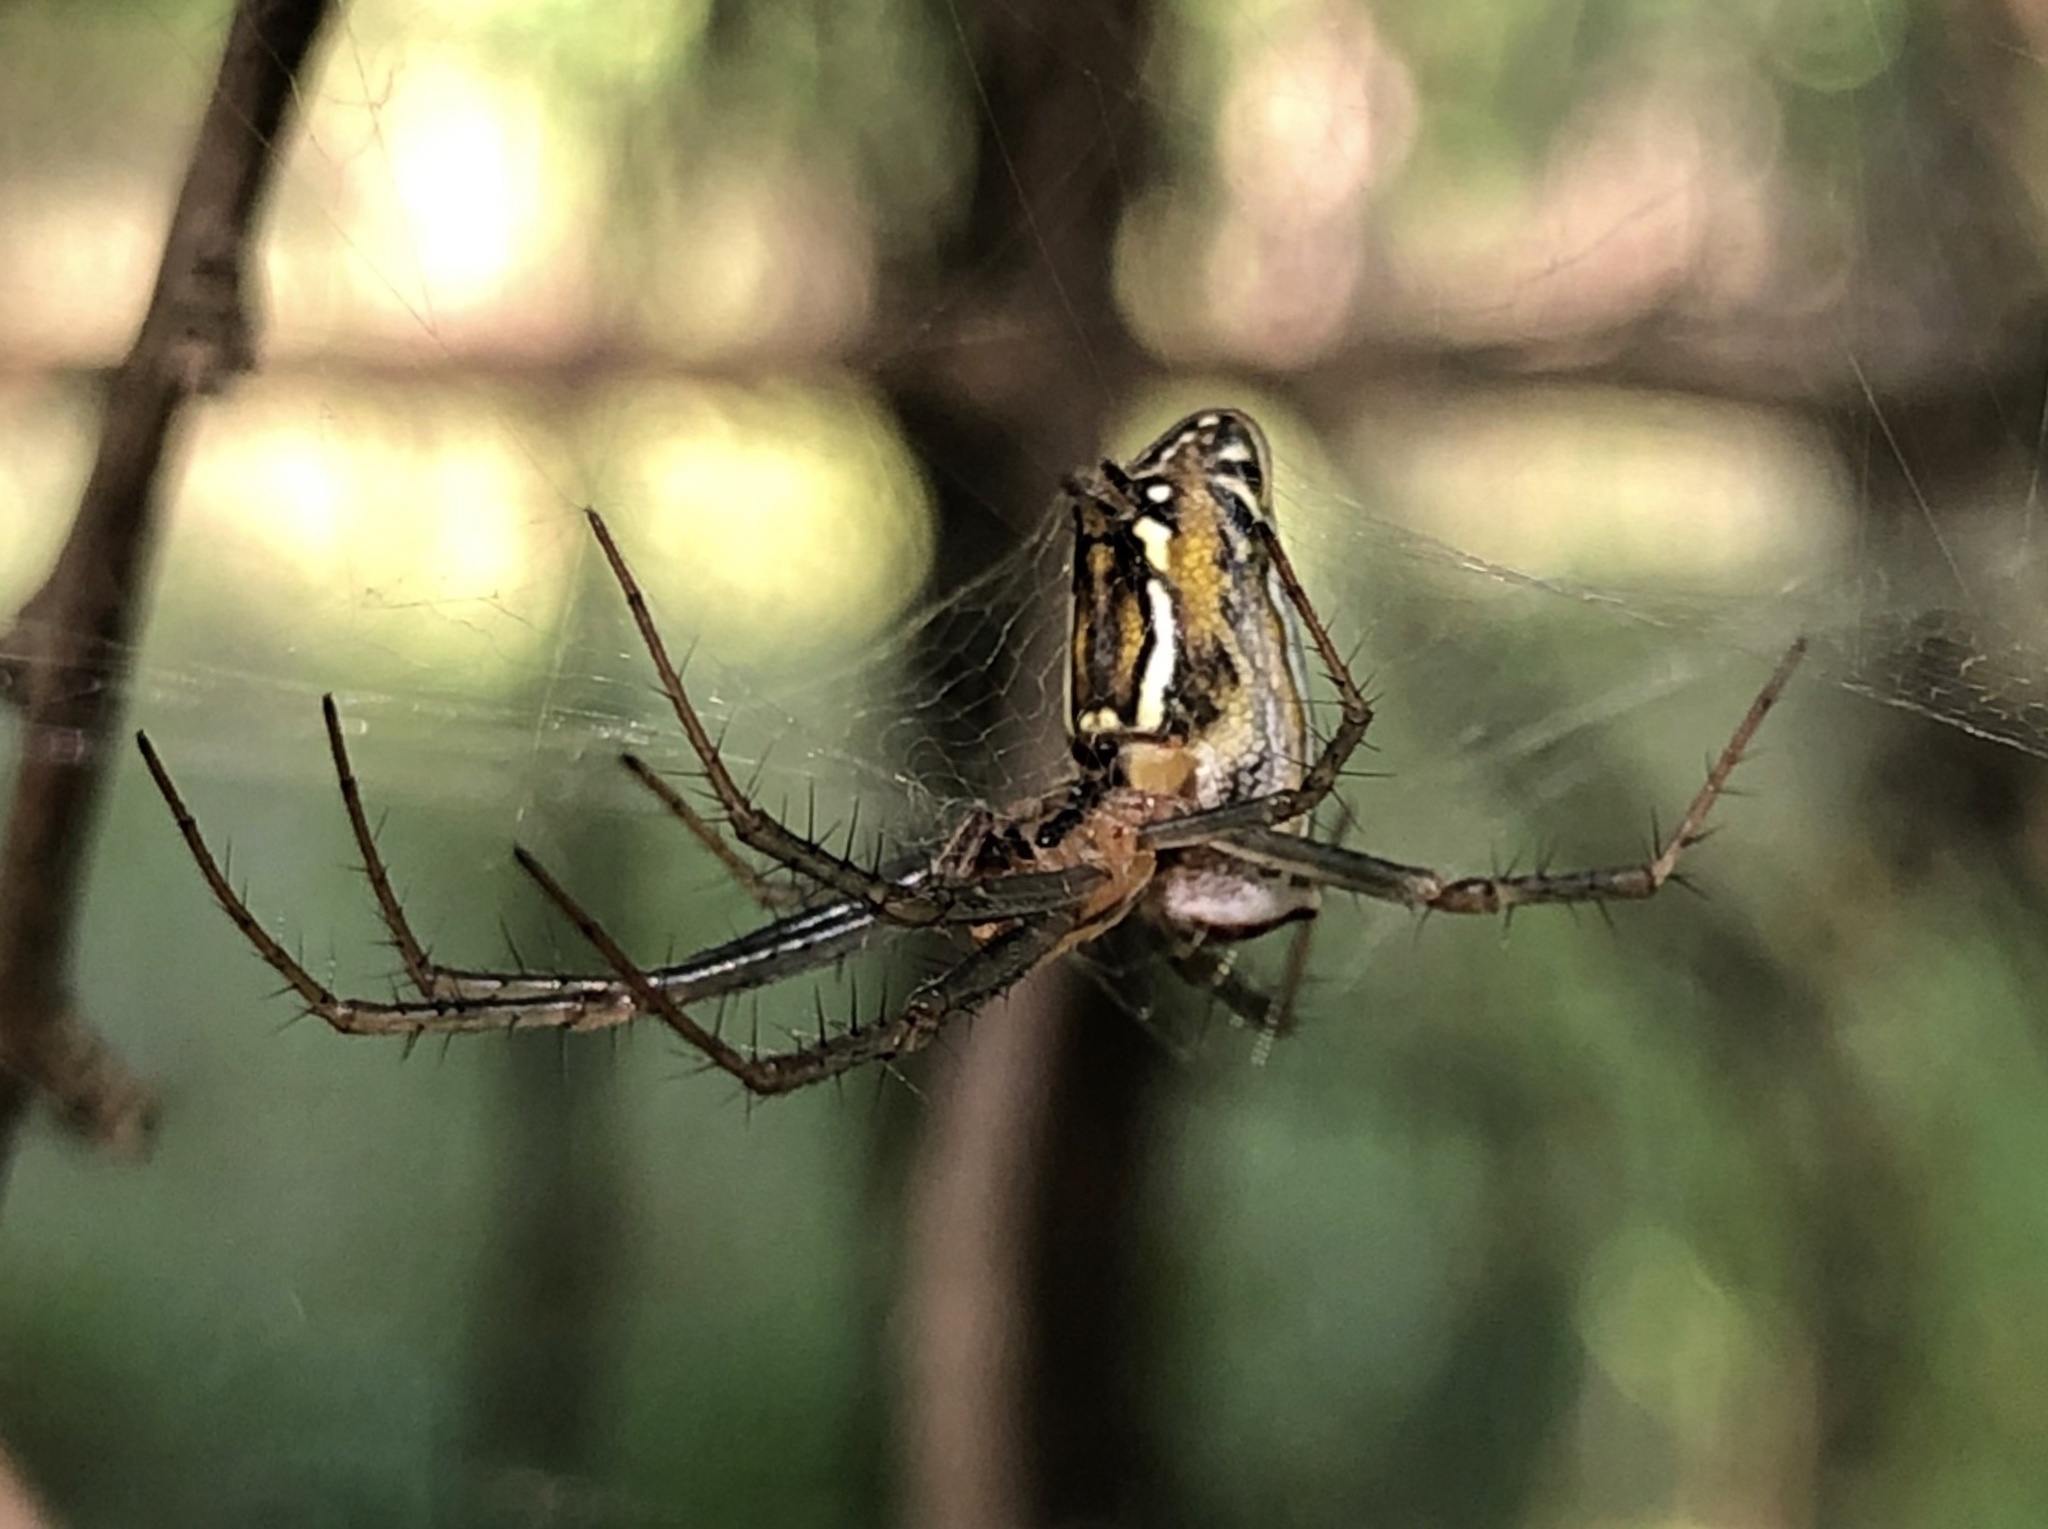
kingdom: Animalia
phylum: Arthropoda
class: Arachnida
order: Araneae
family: Araneidae
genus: Mecynogea
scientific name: Mecynogea lemniscata
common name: Orb weavers
